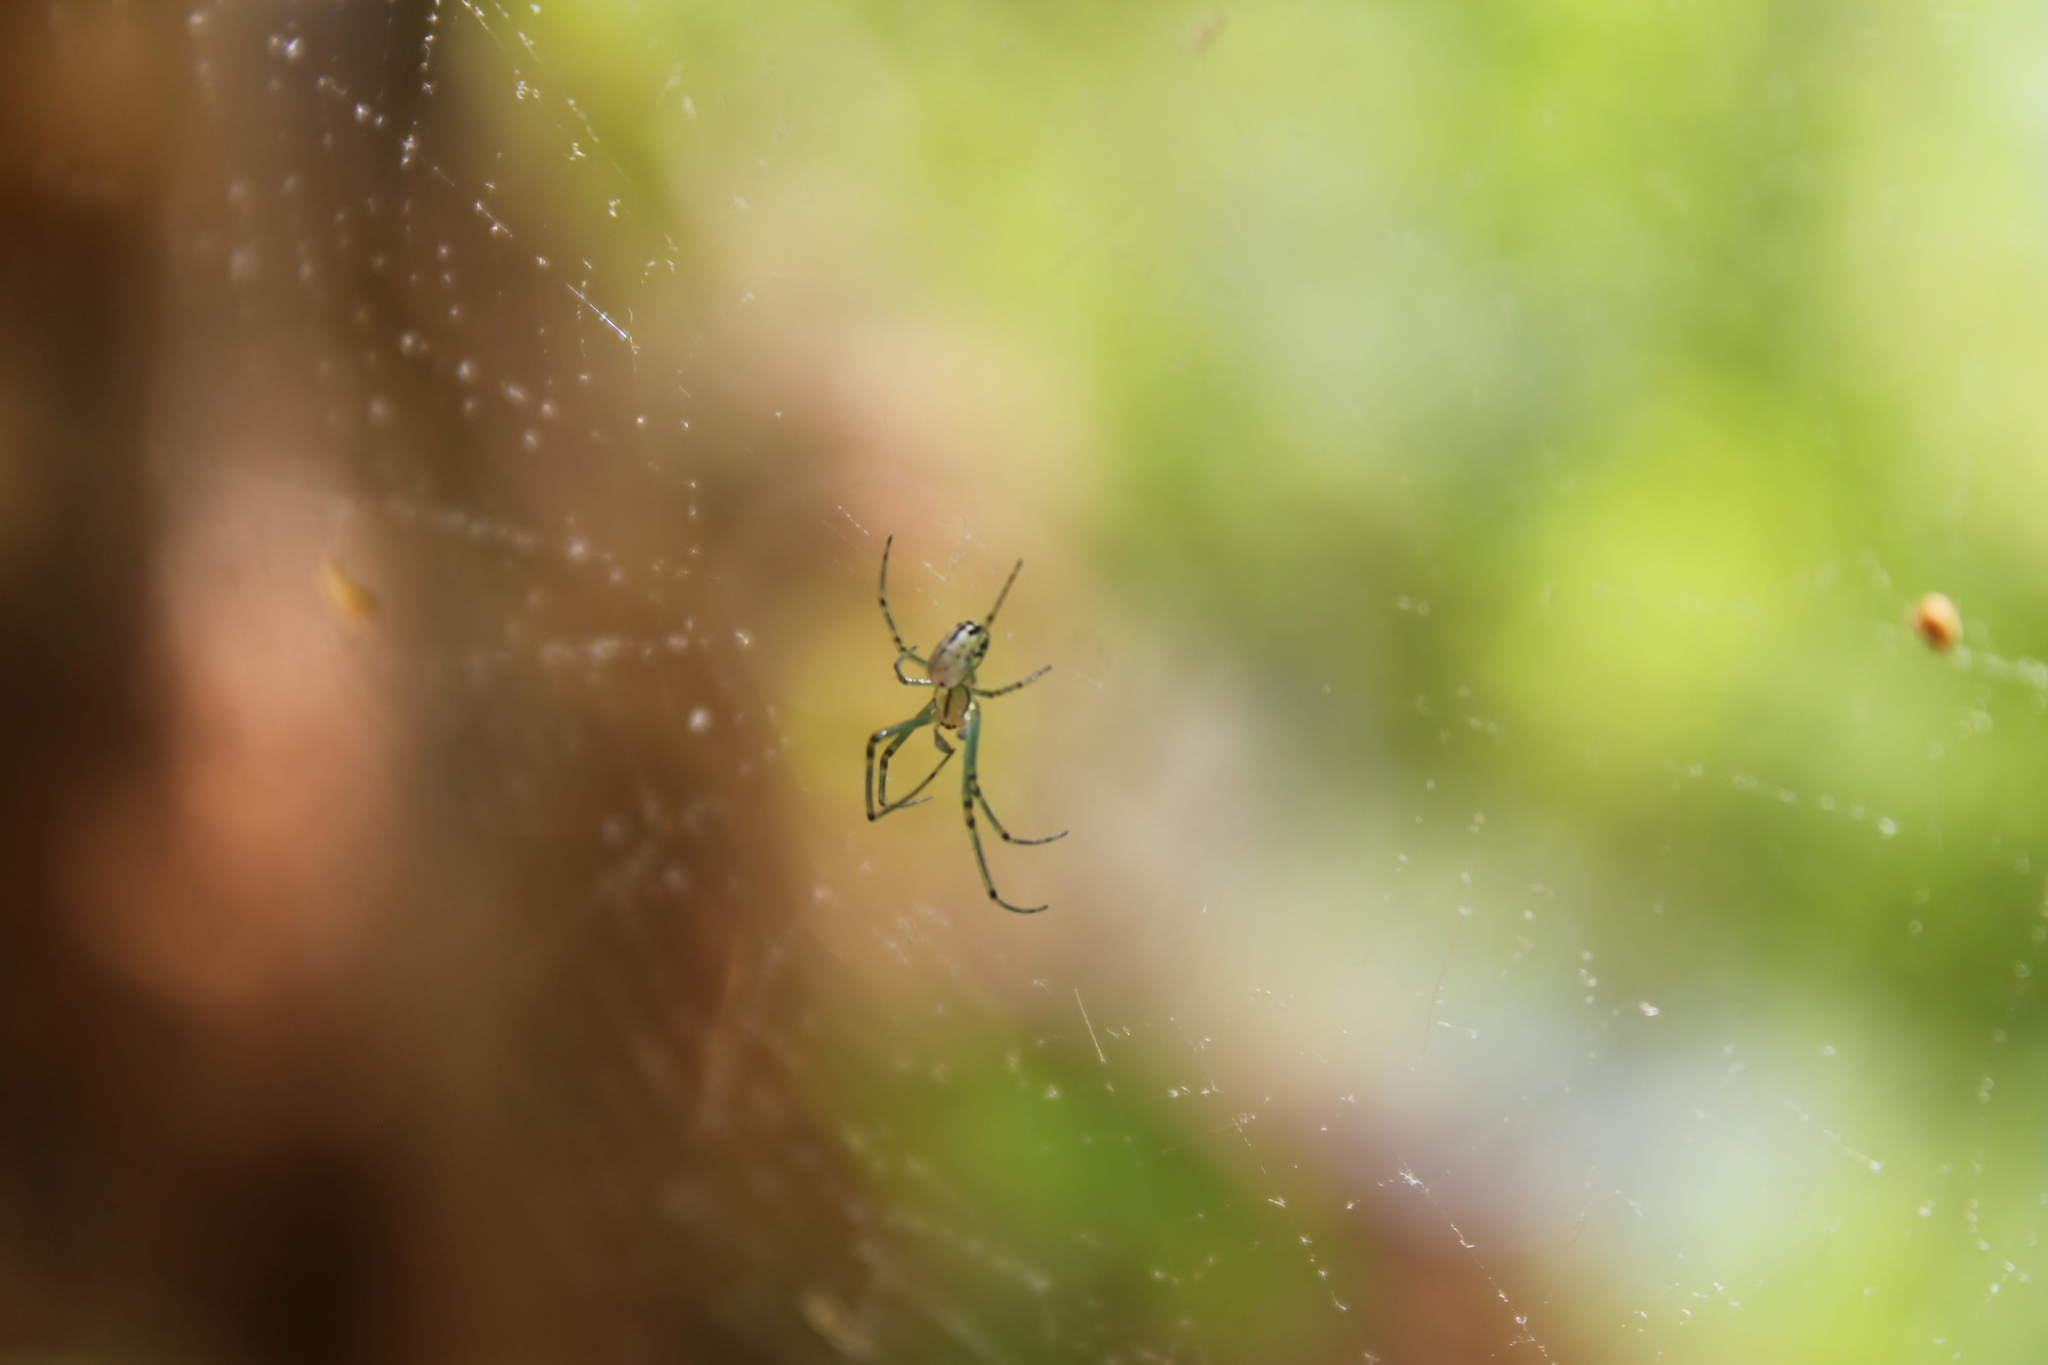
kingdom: Animalia
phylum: Arthropoda
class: Arachnida
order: Araneae
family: Tetragnathidae
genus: Leucauge
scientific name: Leucauge venusta
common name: Longjawed orb weavers
